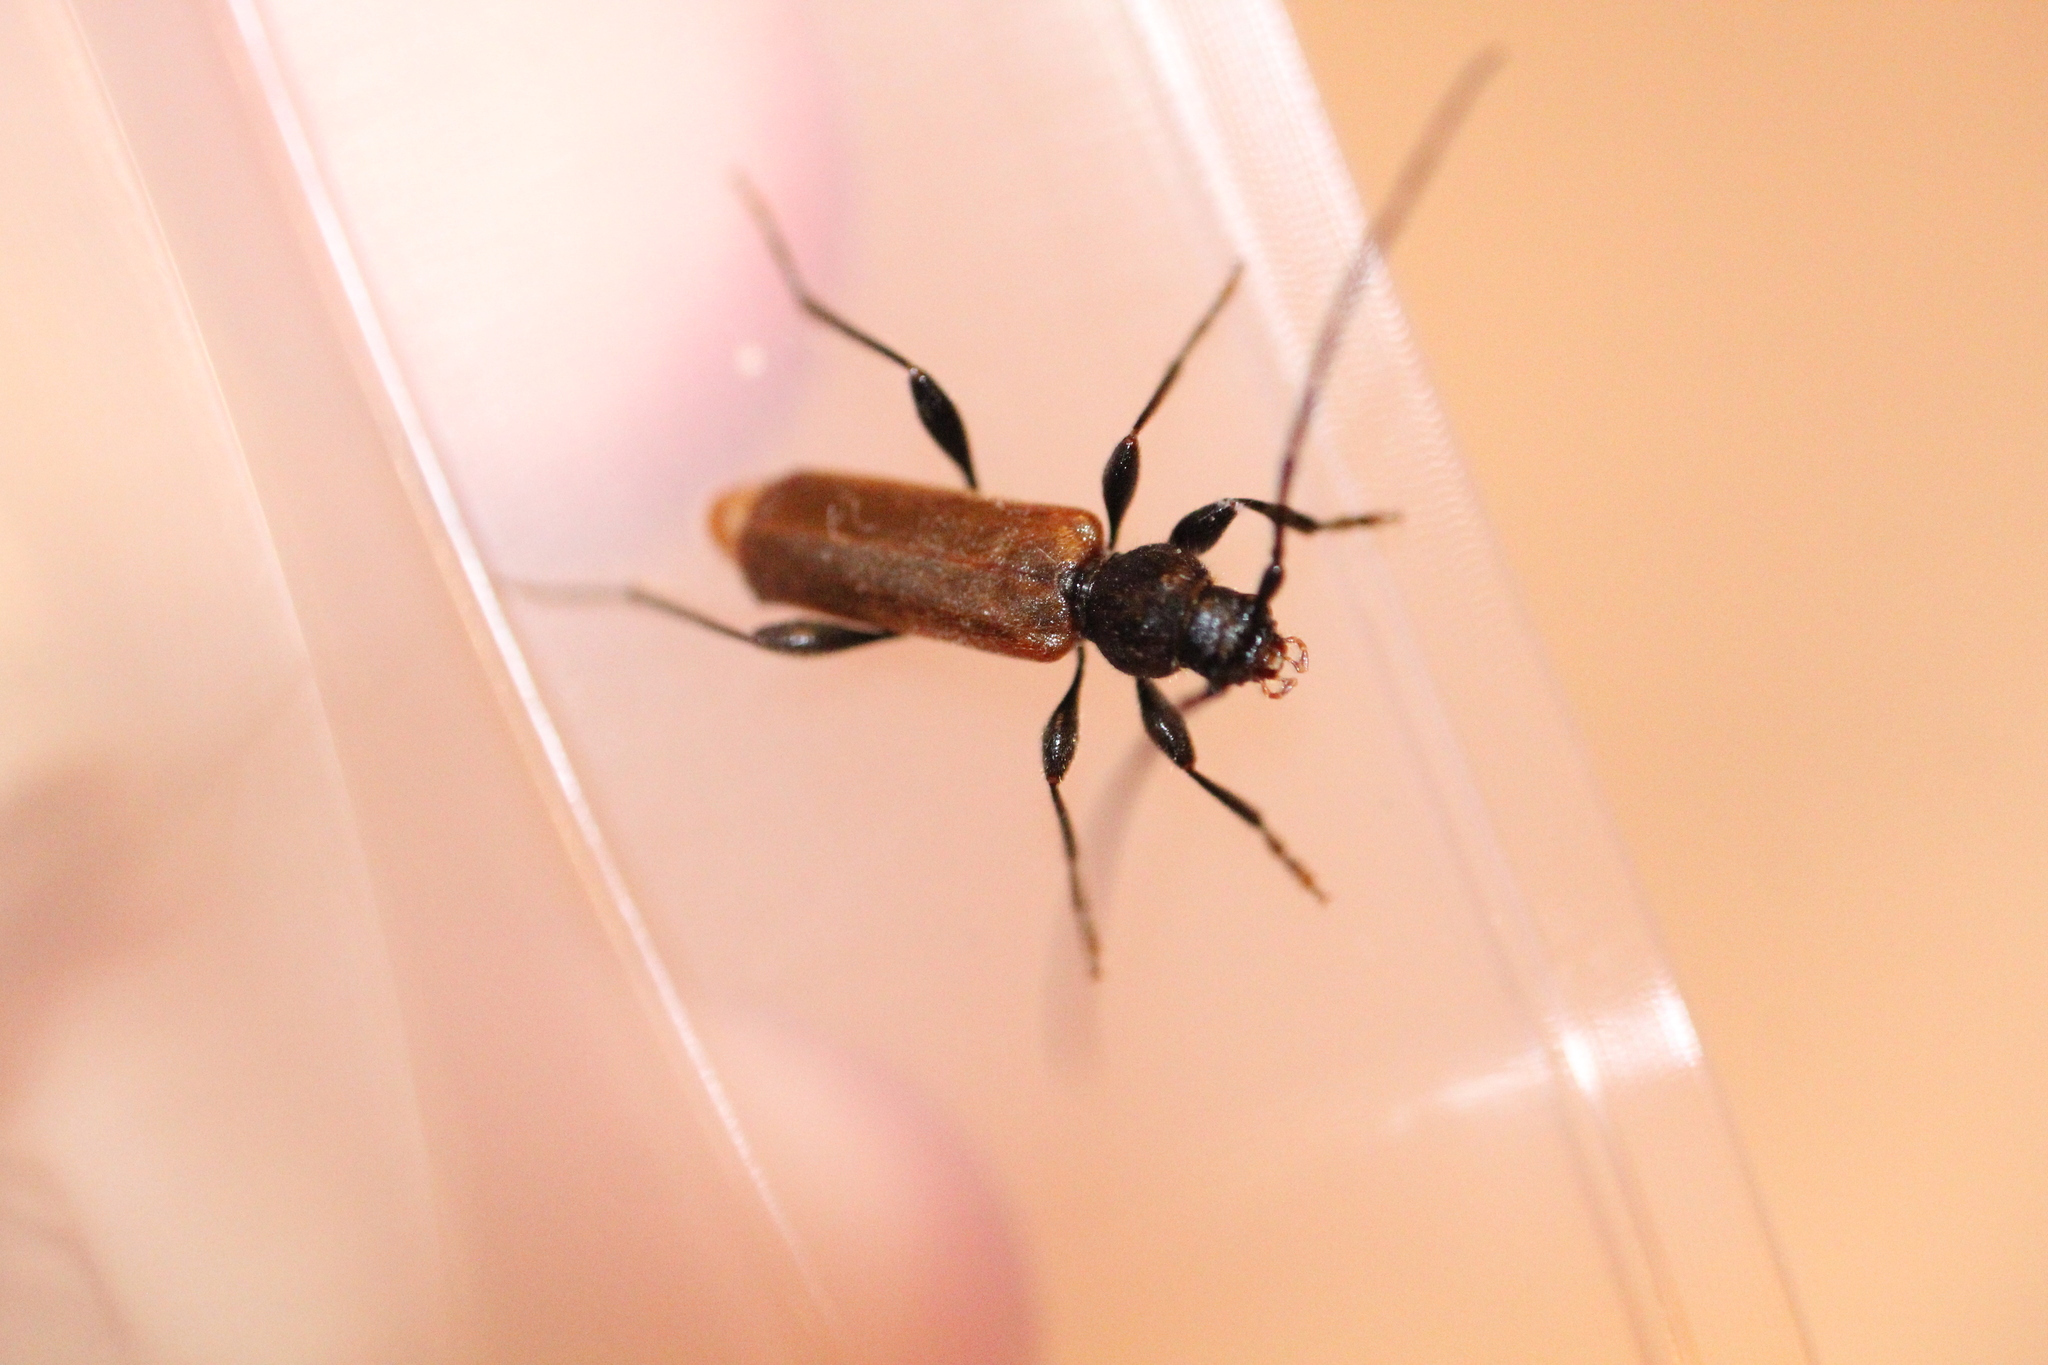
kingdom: Animalia
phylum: Arthropoda
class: Insecta
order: Coleoptera
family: Cerambycidae
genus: Phymatodes
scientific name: Phymatodes testaceus
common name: Long-horned beetle
